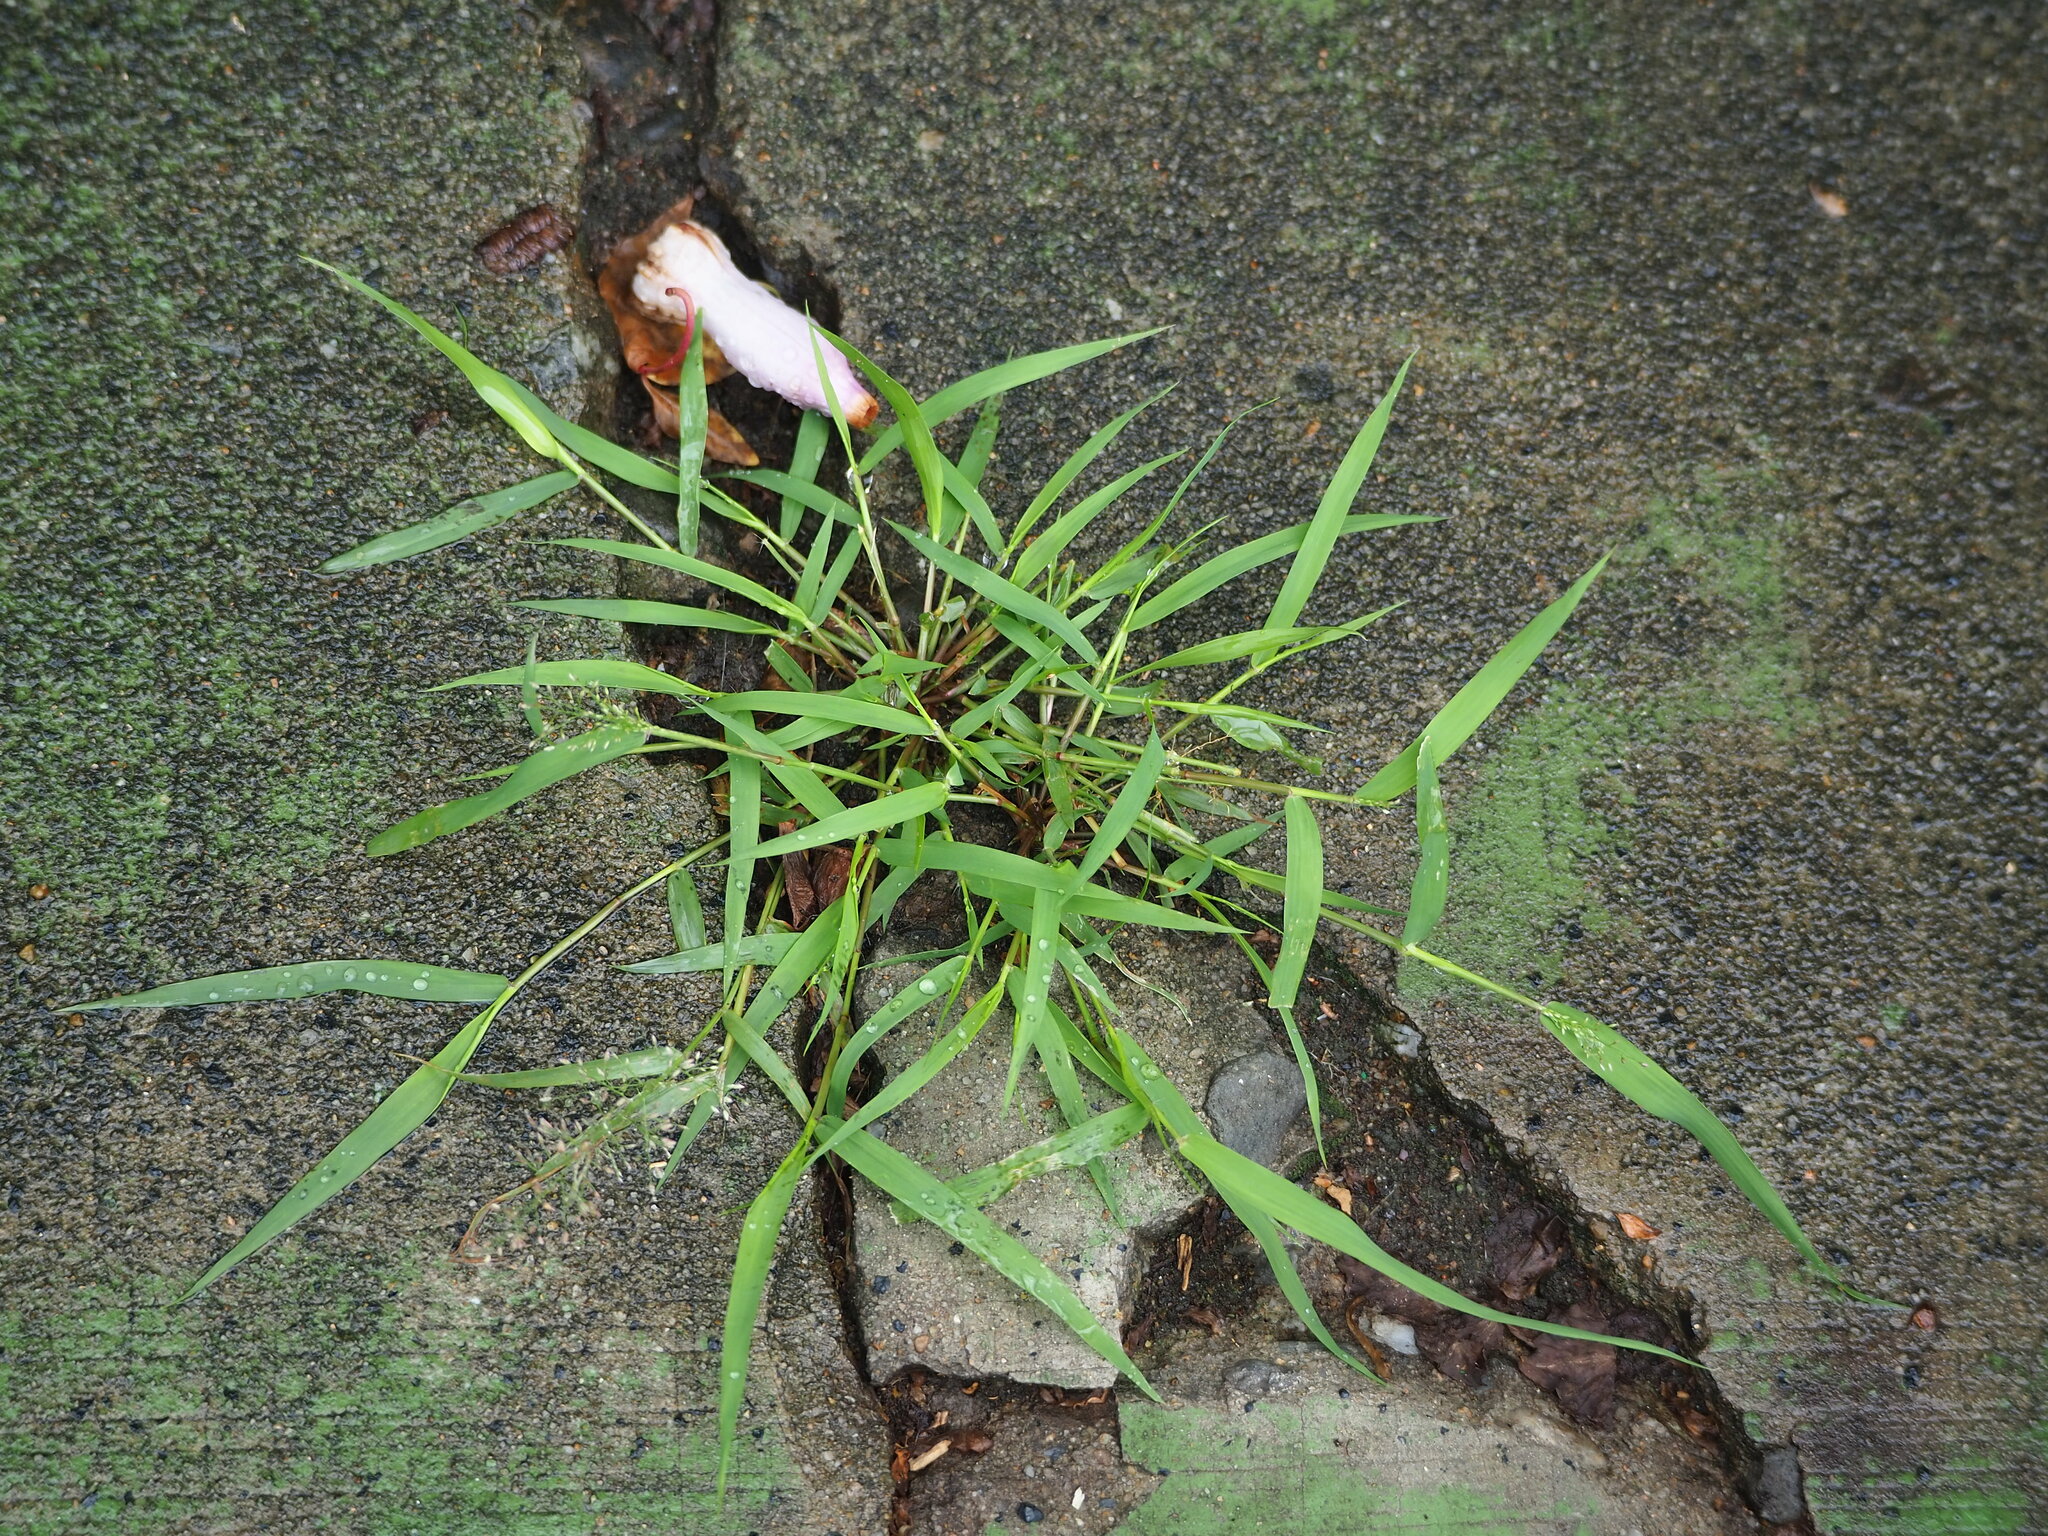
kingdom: Plantae
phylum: Tracheophyta
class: Liliopsida
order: Poales
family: Poaceae
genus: Eragrostis
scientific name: Eragrostis tenella
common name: Japanese lovegrass
